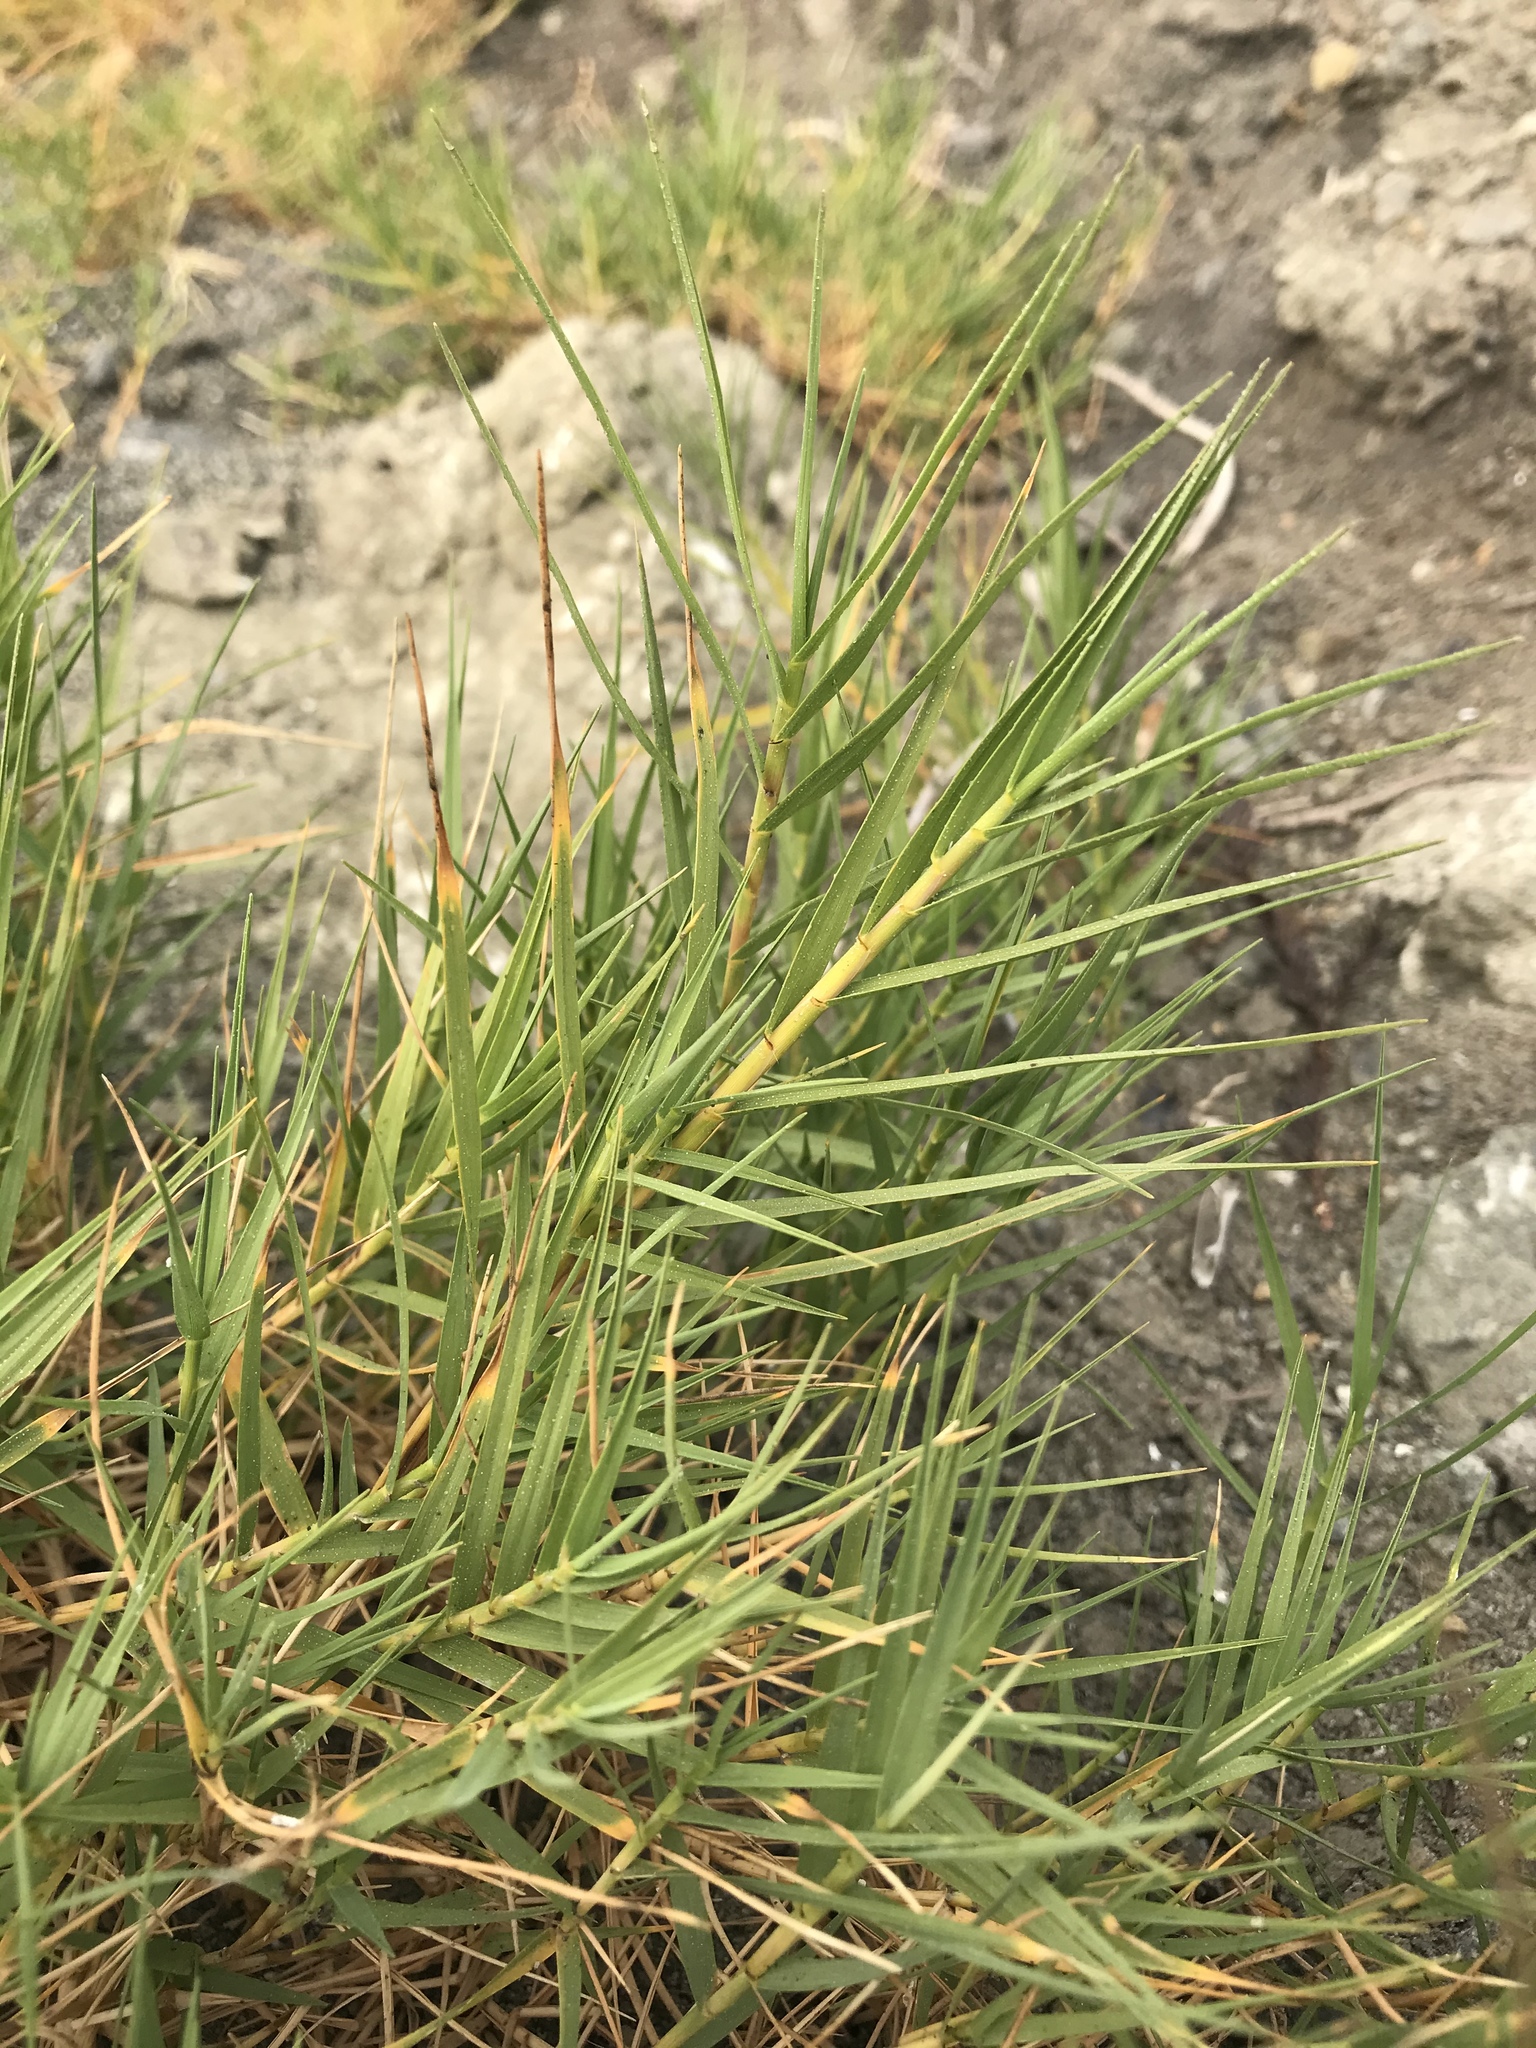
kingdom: Plantae
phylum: Tracheophyta
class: Liliopsida
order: Poales
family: Poaceae
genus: Distichlis
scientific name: Distichlis spicata
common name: Saltgrass
